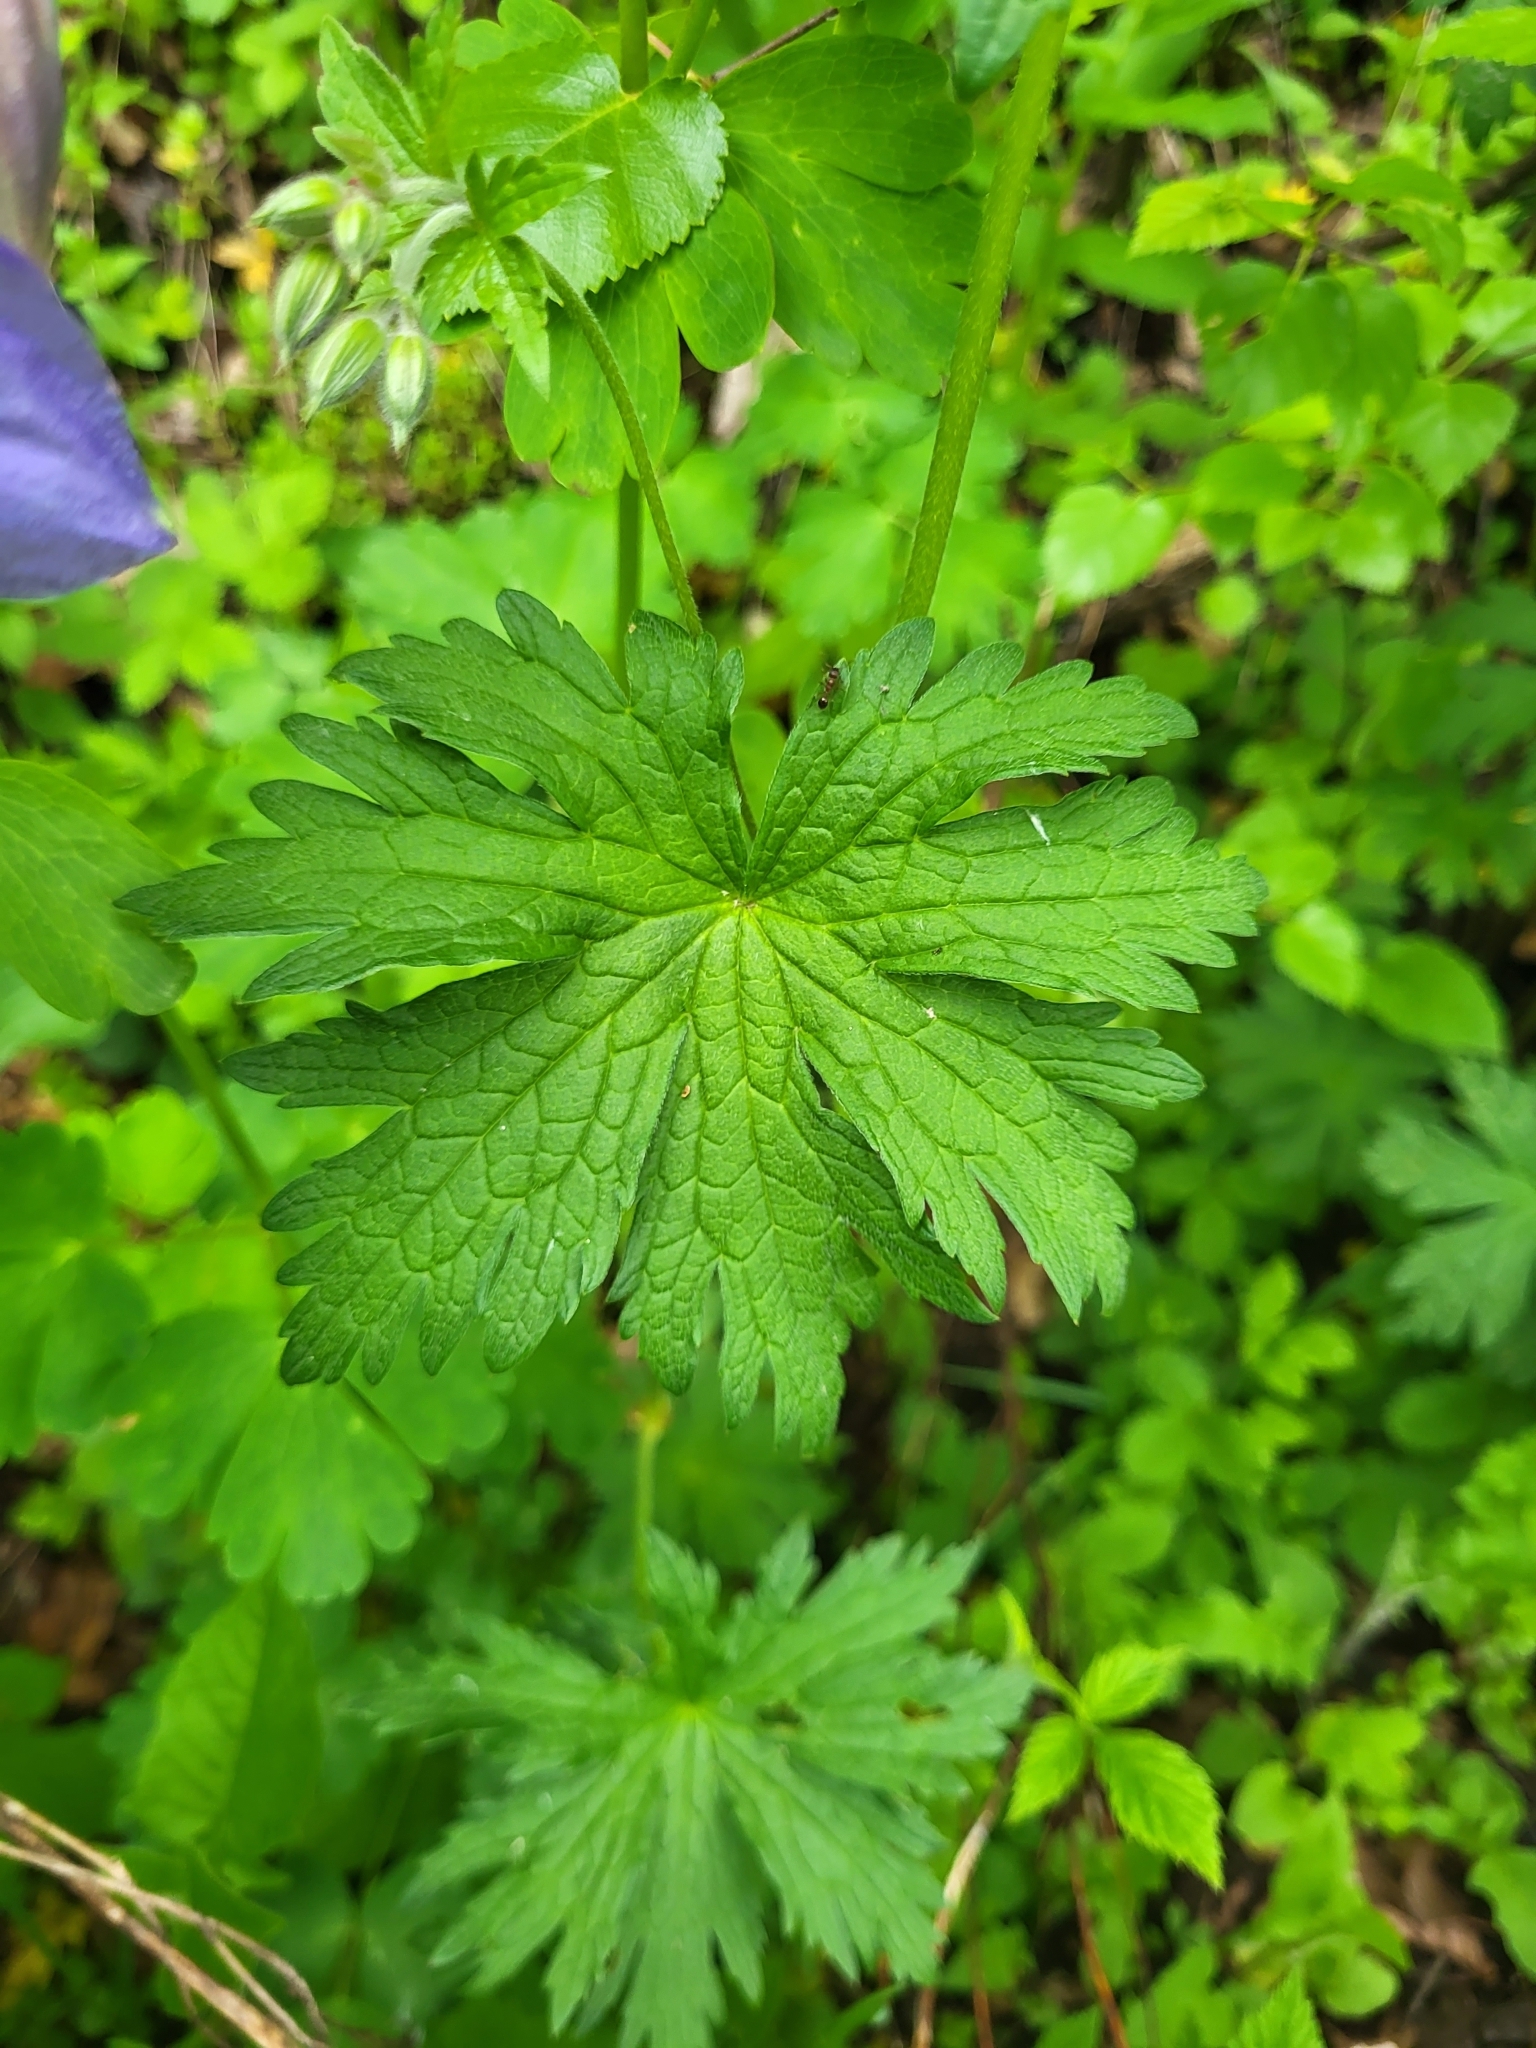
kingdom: Plantae
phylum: Tracheophyta
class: Magnoliopsida
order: Ranunculales
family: Ranunculaceae
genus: Aquilegia
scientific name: Aquilegia olympica
